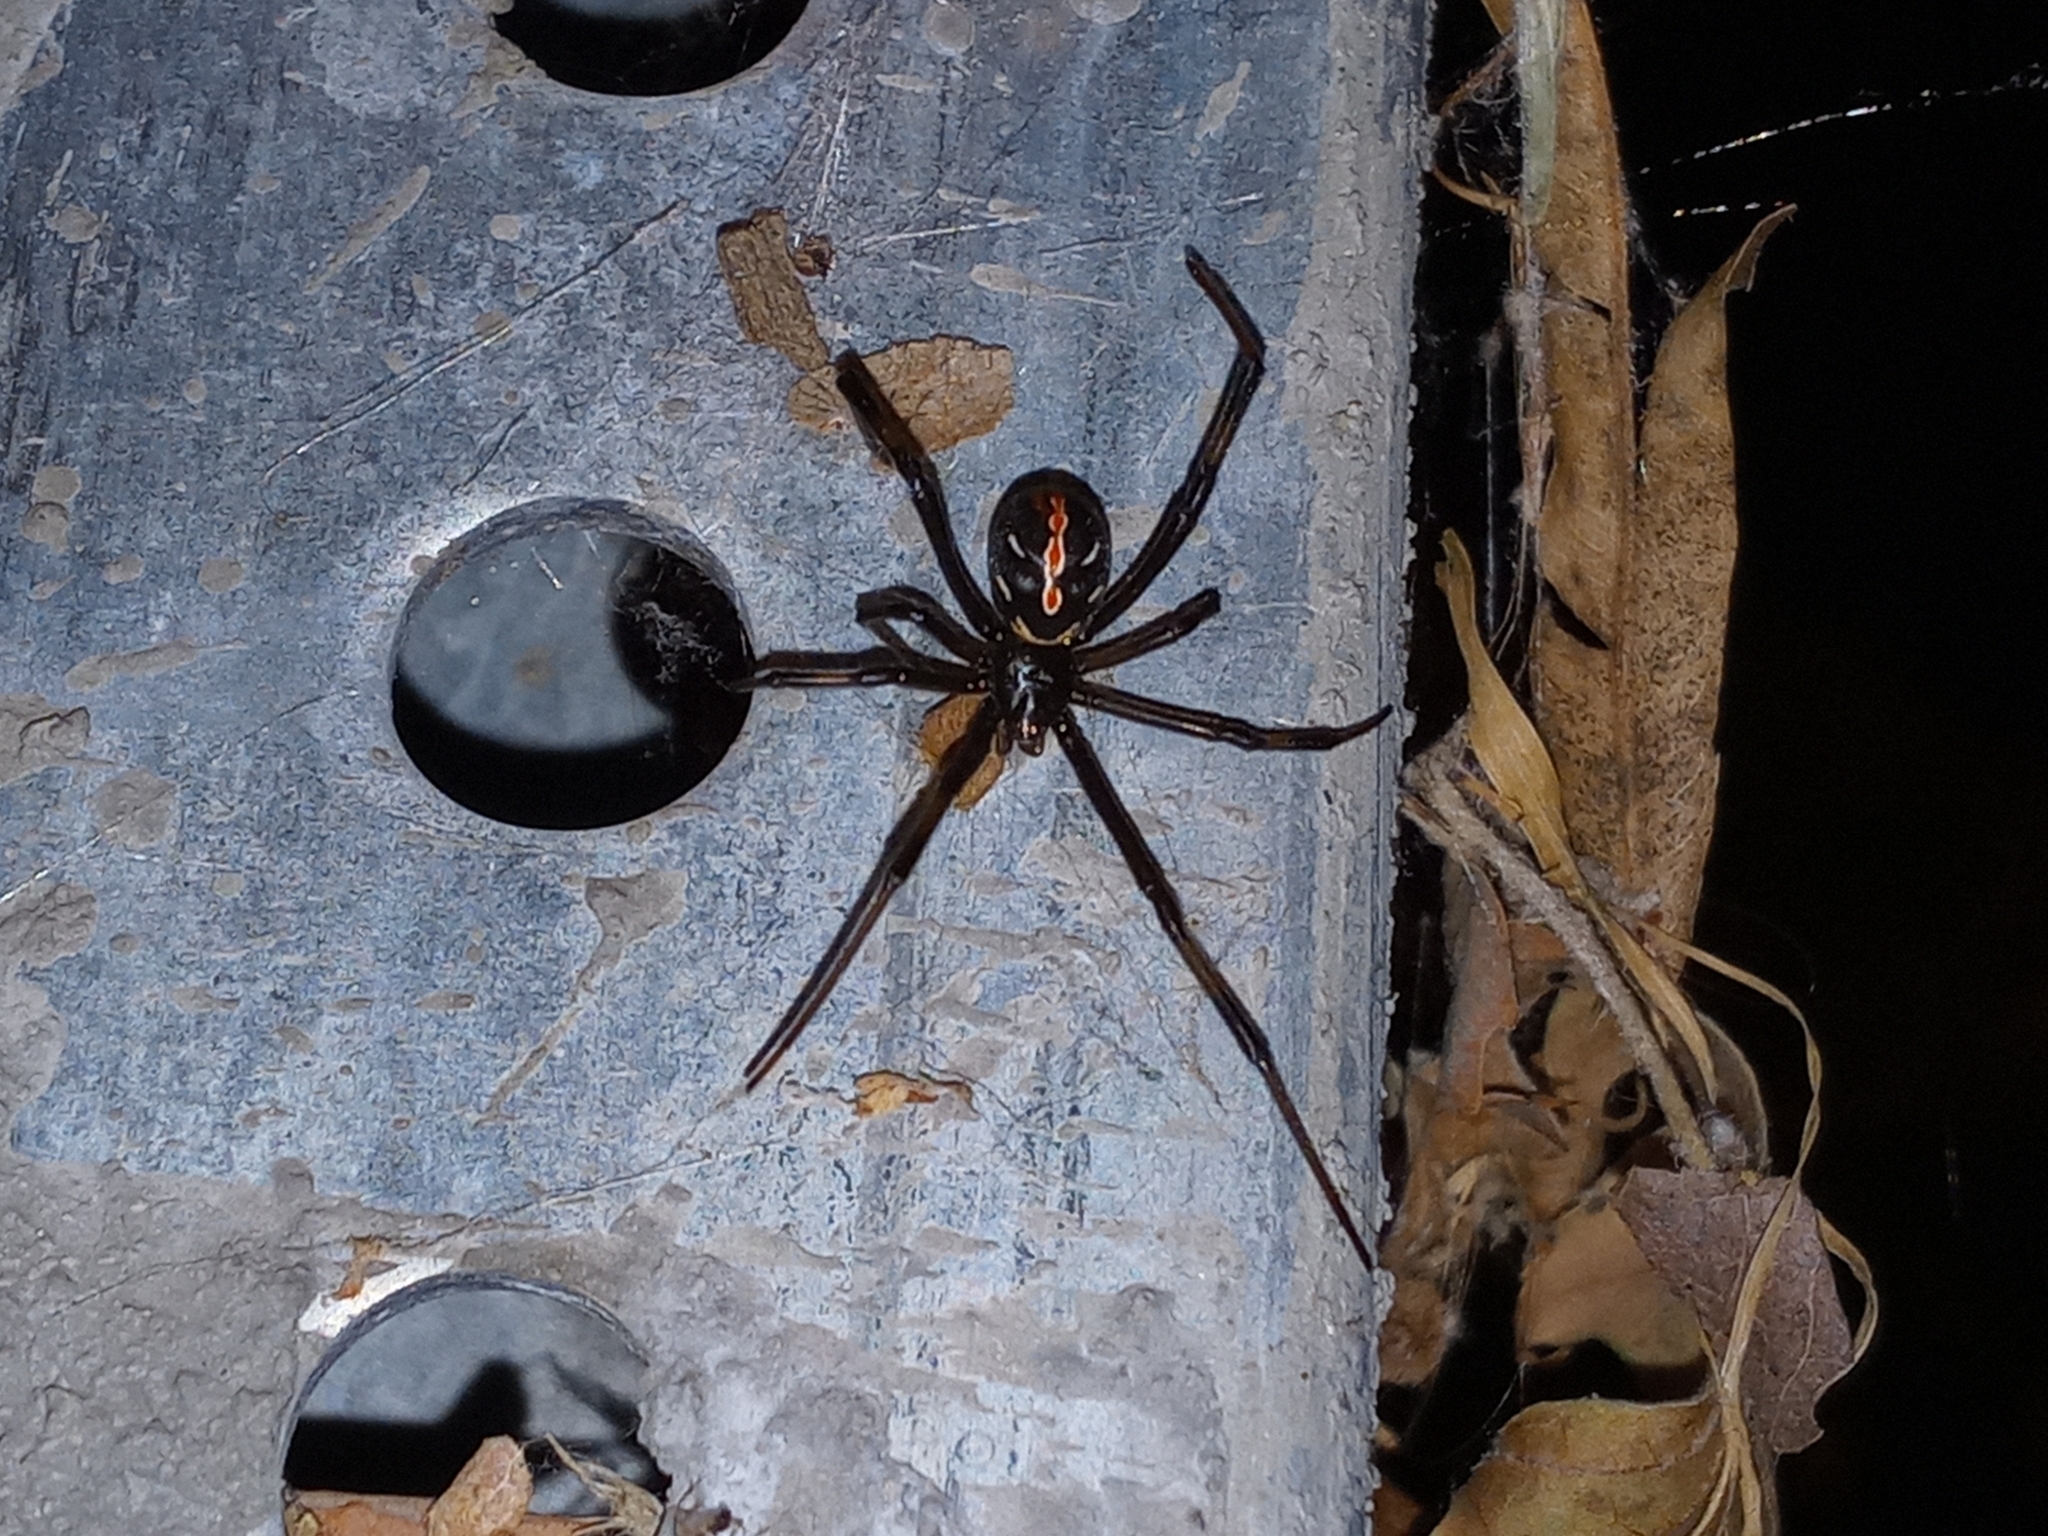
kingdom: Animalia
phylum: Arthropoda
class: Arachnida
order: Araneae
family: Theridiidae
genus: Latrodectus
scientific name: Latrodectus hesperus
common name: Western black widow
